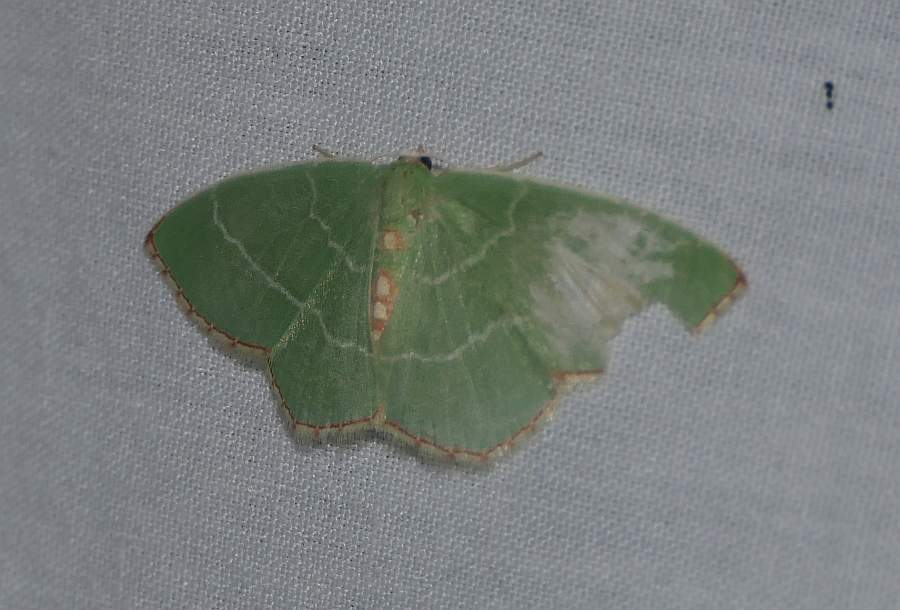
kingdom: Animalia
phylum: Arthropoda
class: Insecta
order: Lepidoptera
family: Geometridae
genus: Nemoria
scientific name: Nemoria bistriaria
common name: Red-fringed emerald
